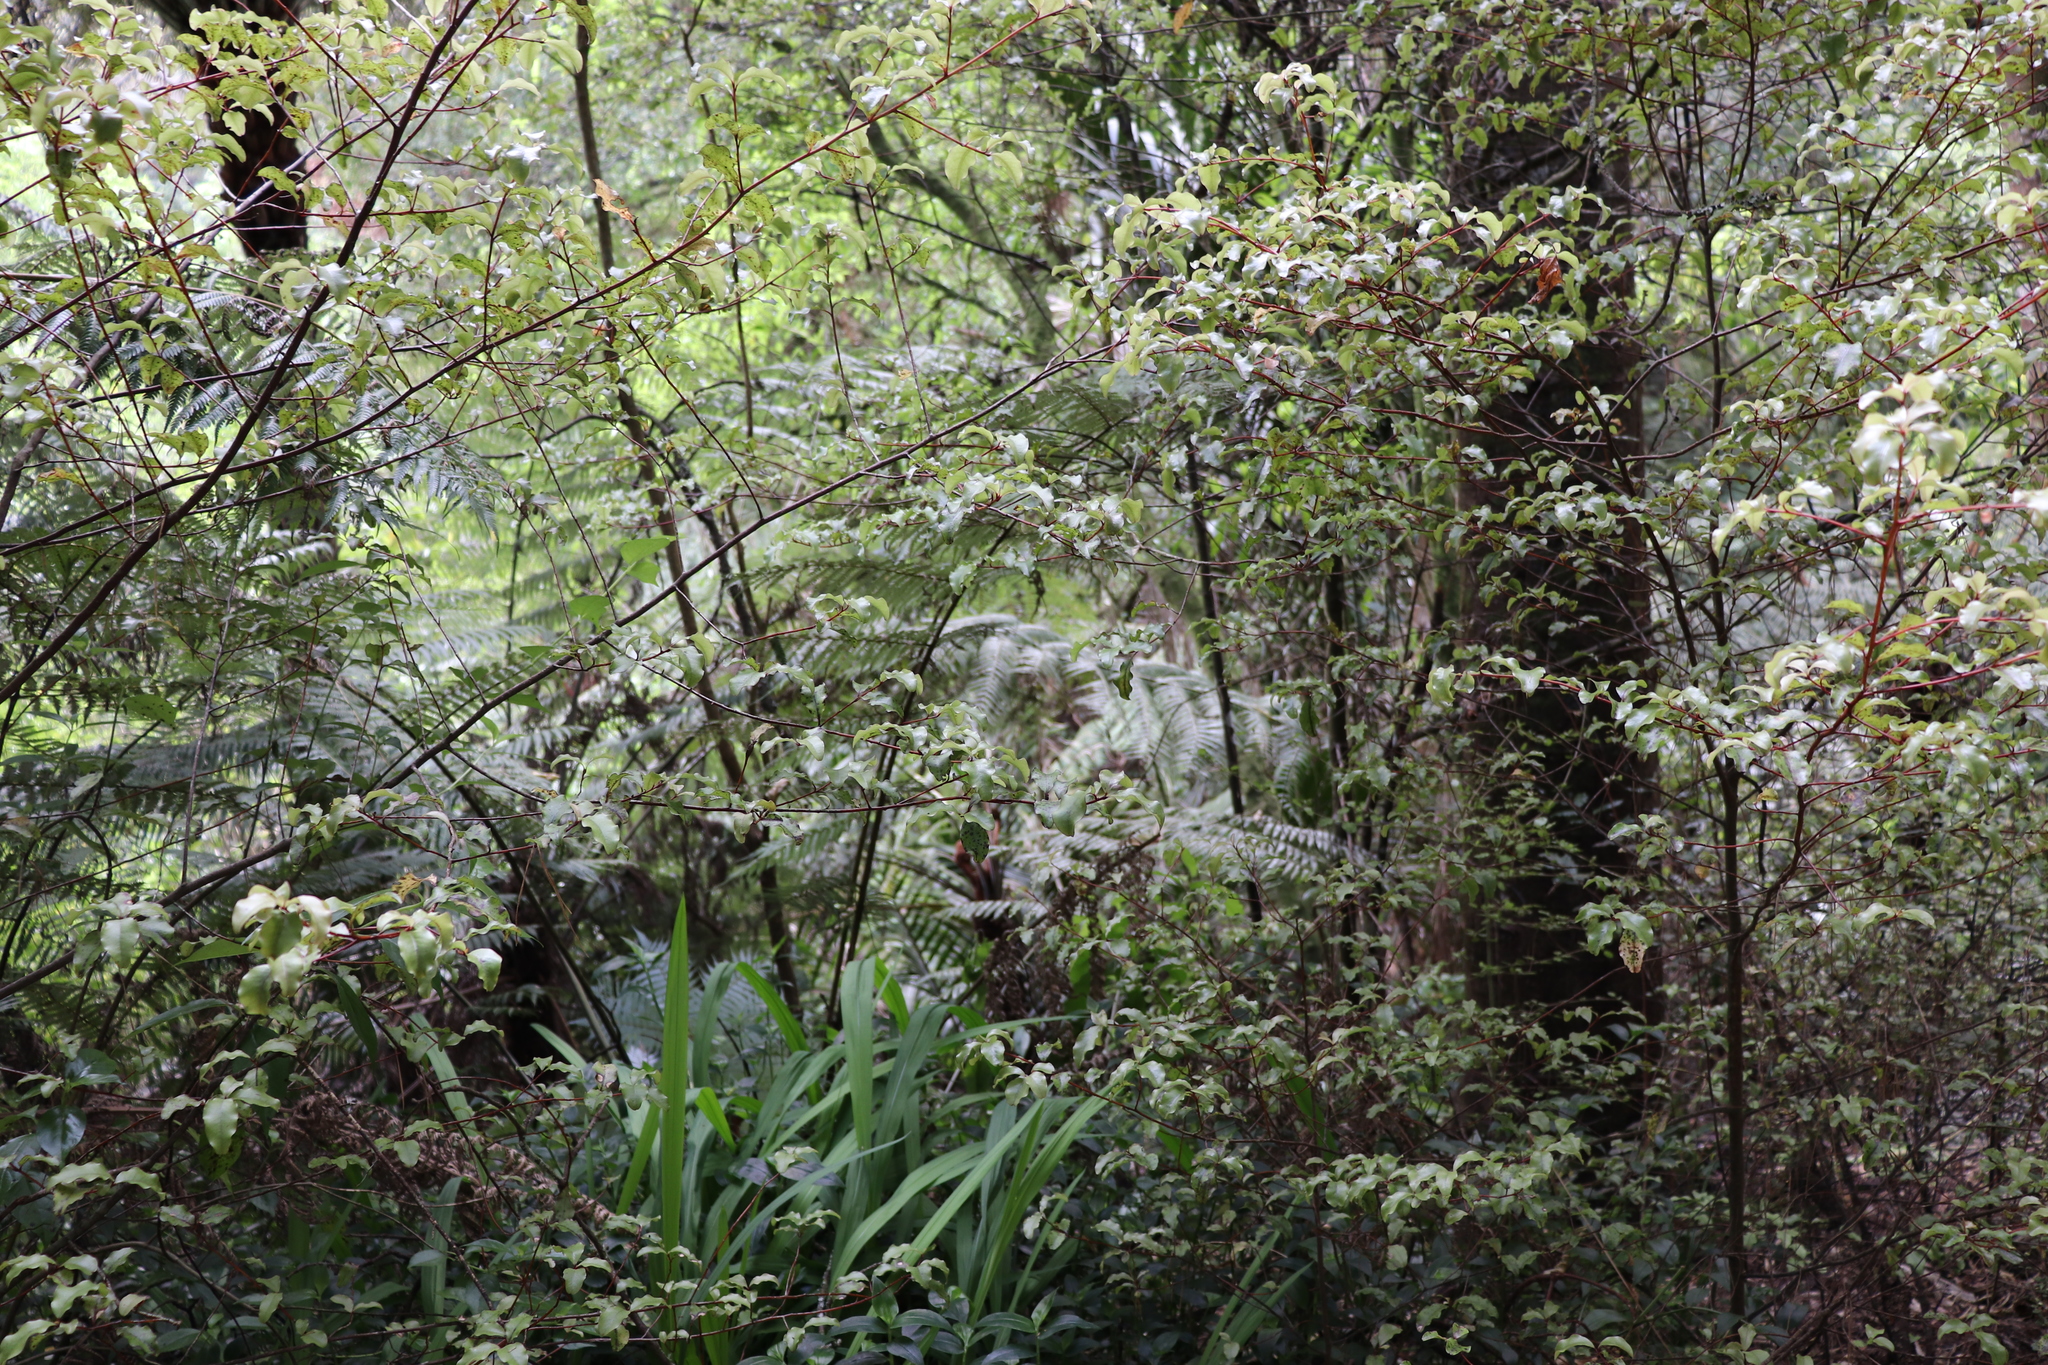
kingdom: Plantae
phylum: Tracheophyta
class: Magnoliopsida
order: Ericales
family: Primulaceae
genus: Myrsine
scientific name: Myrsine australis
